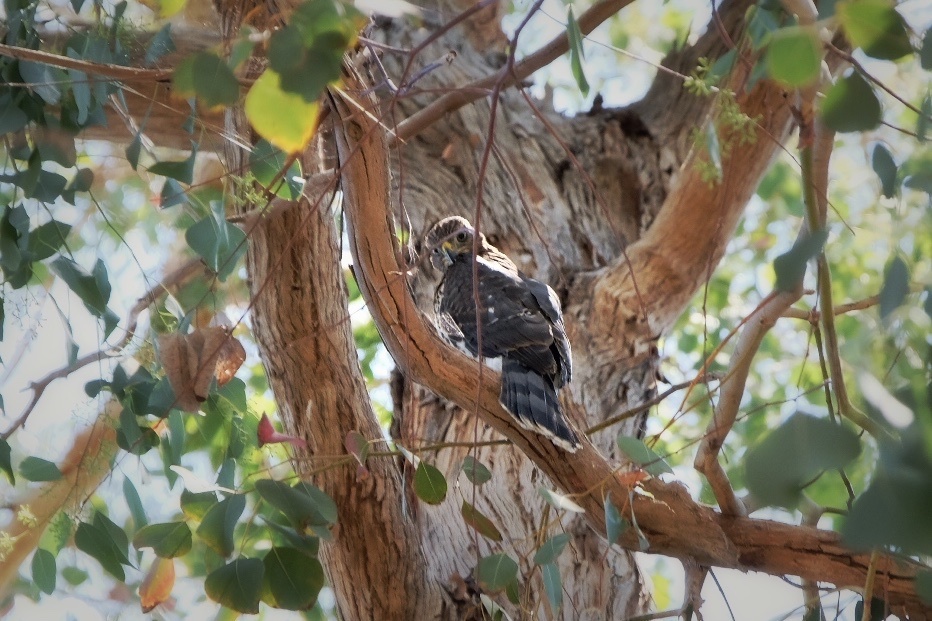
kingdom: Animalia
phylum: Chordata
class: Aves
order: Accipitriformes
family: Accipitridae
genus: Accipiter
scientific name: Accipiter cooperii
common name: Cooper's hawk
